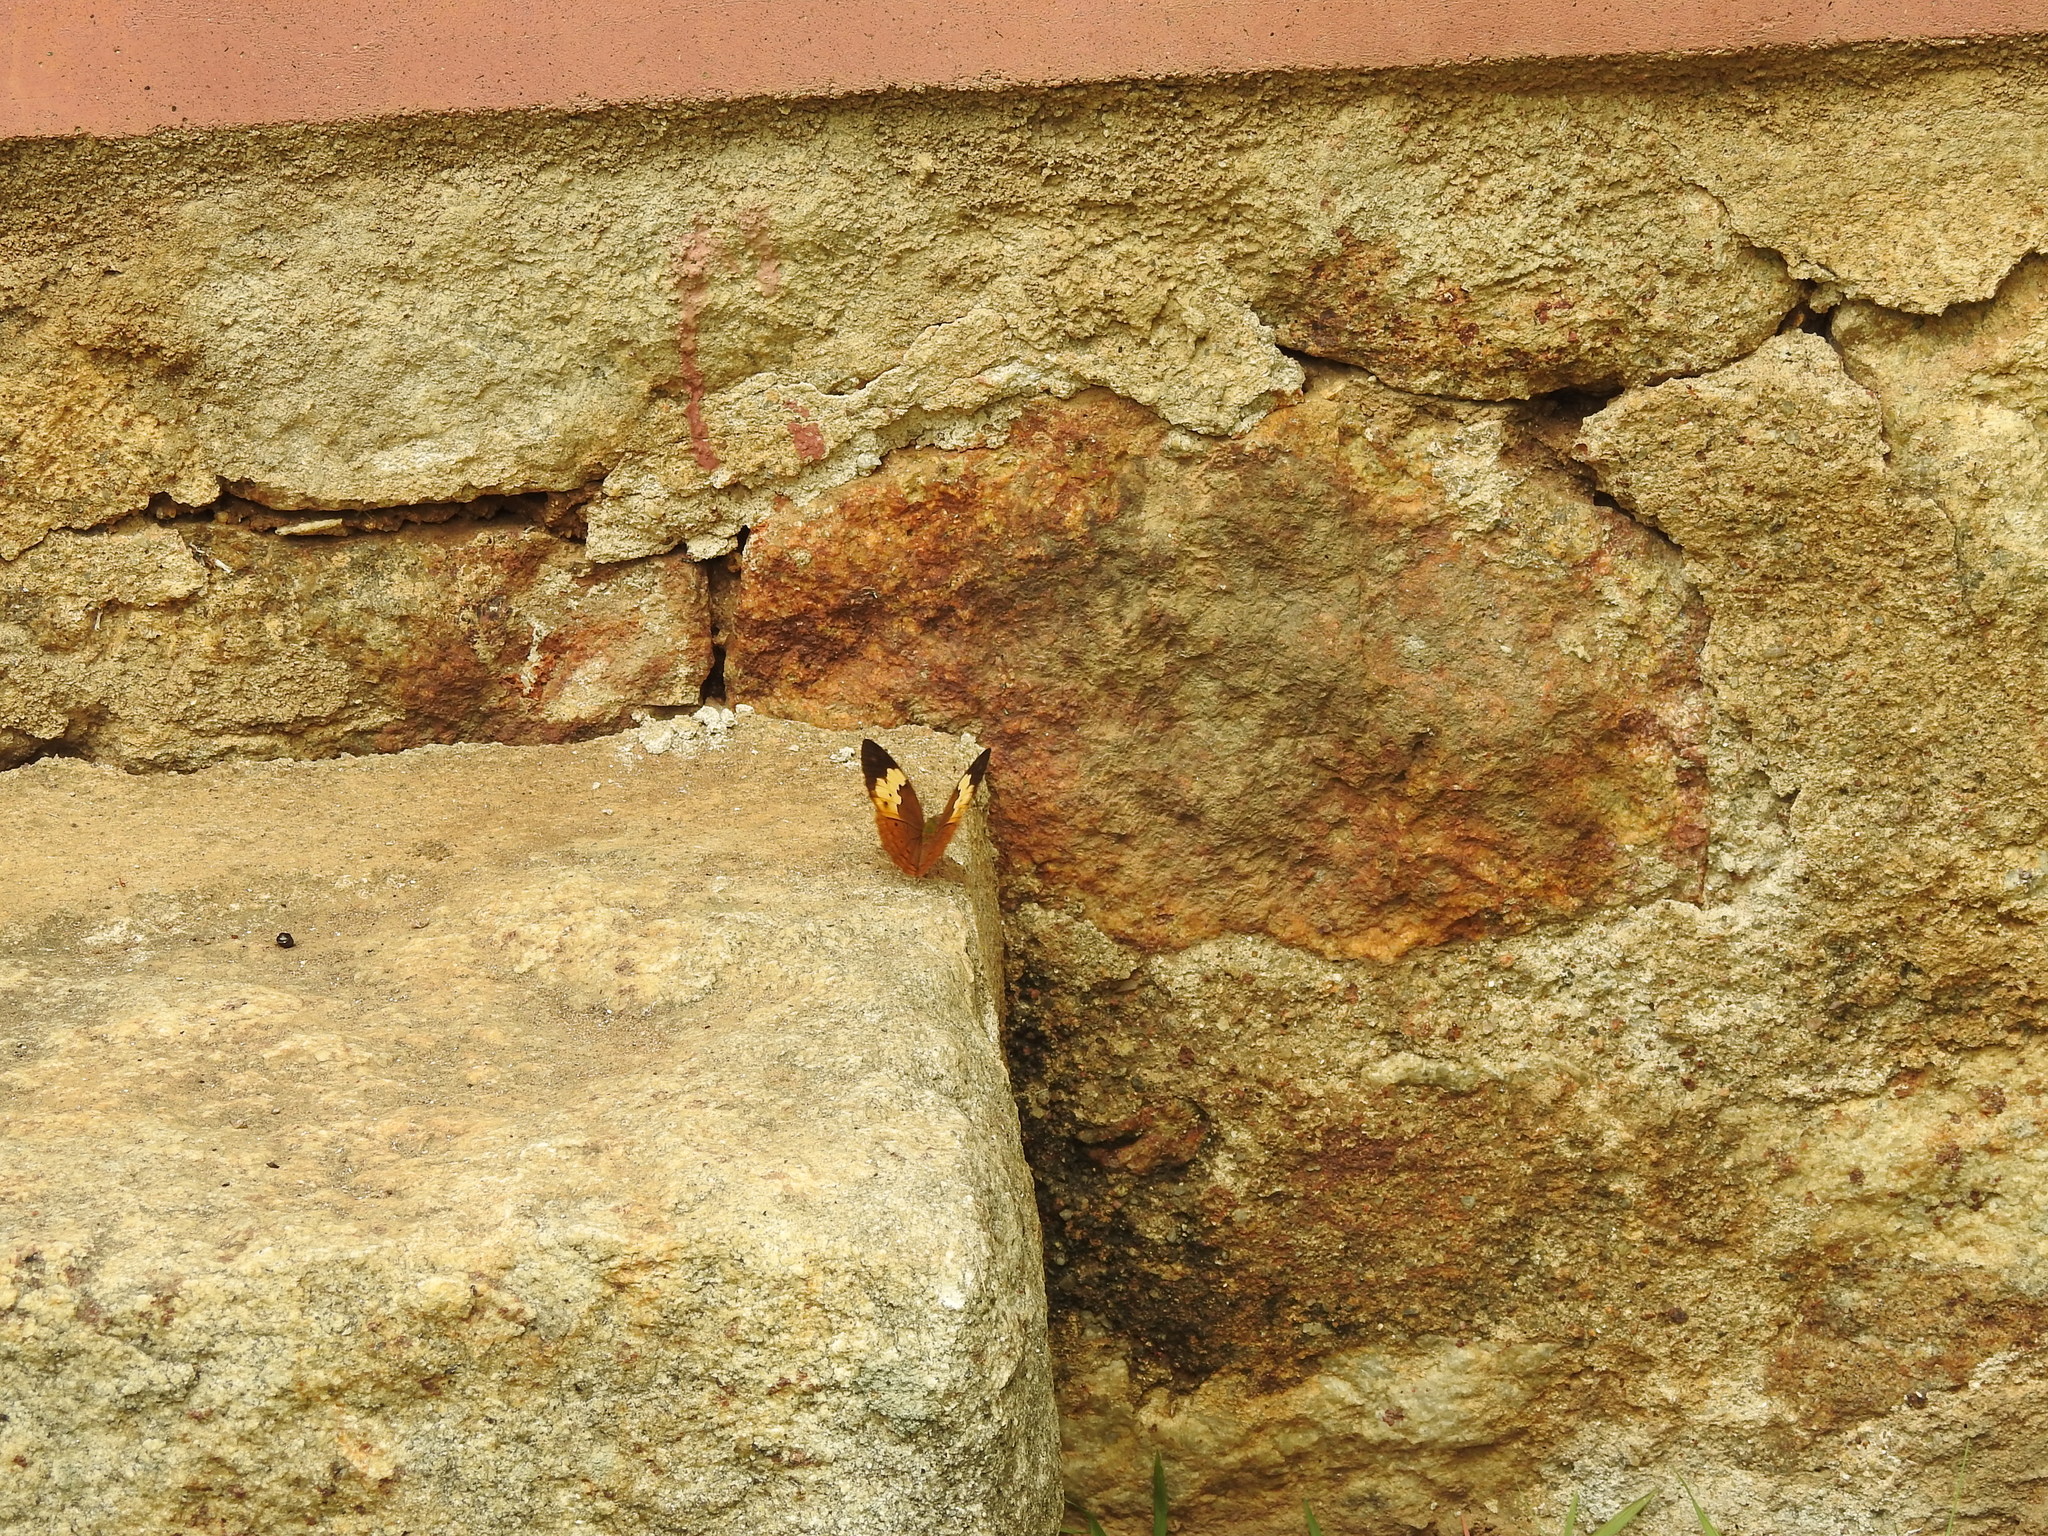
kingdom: Animalia
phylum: Arthropoda
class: Insecta
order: Lepidoptera
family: Nymphalidae
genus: Cupha
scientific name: Cupha erymanthis
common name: Rustic
